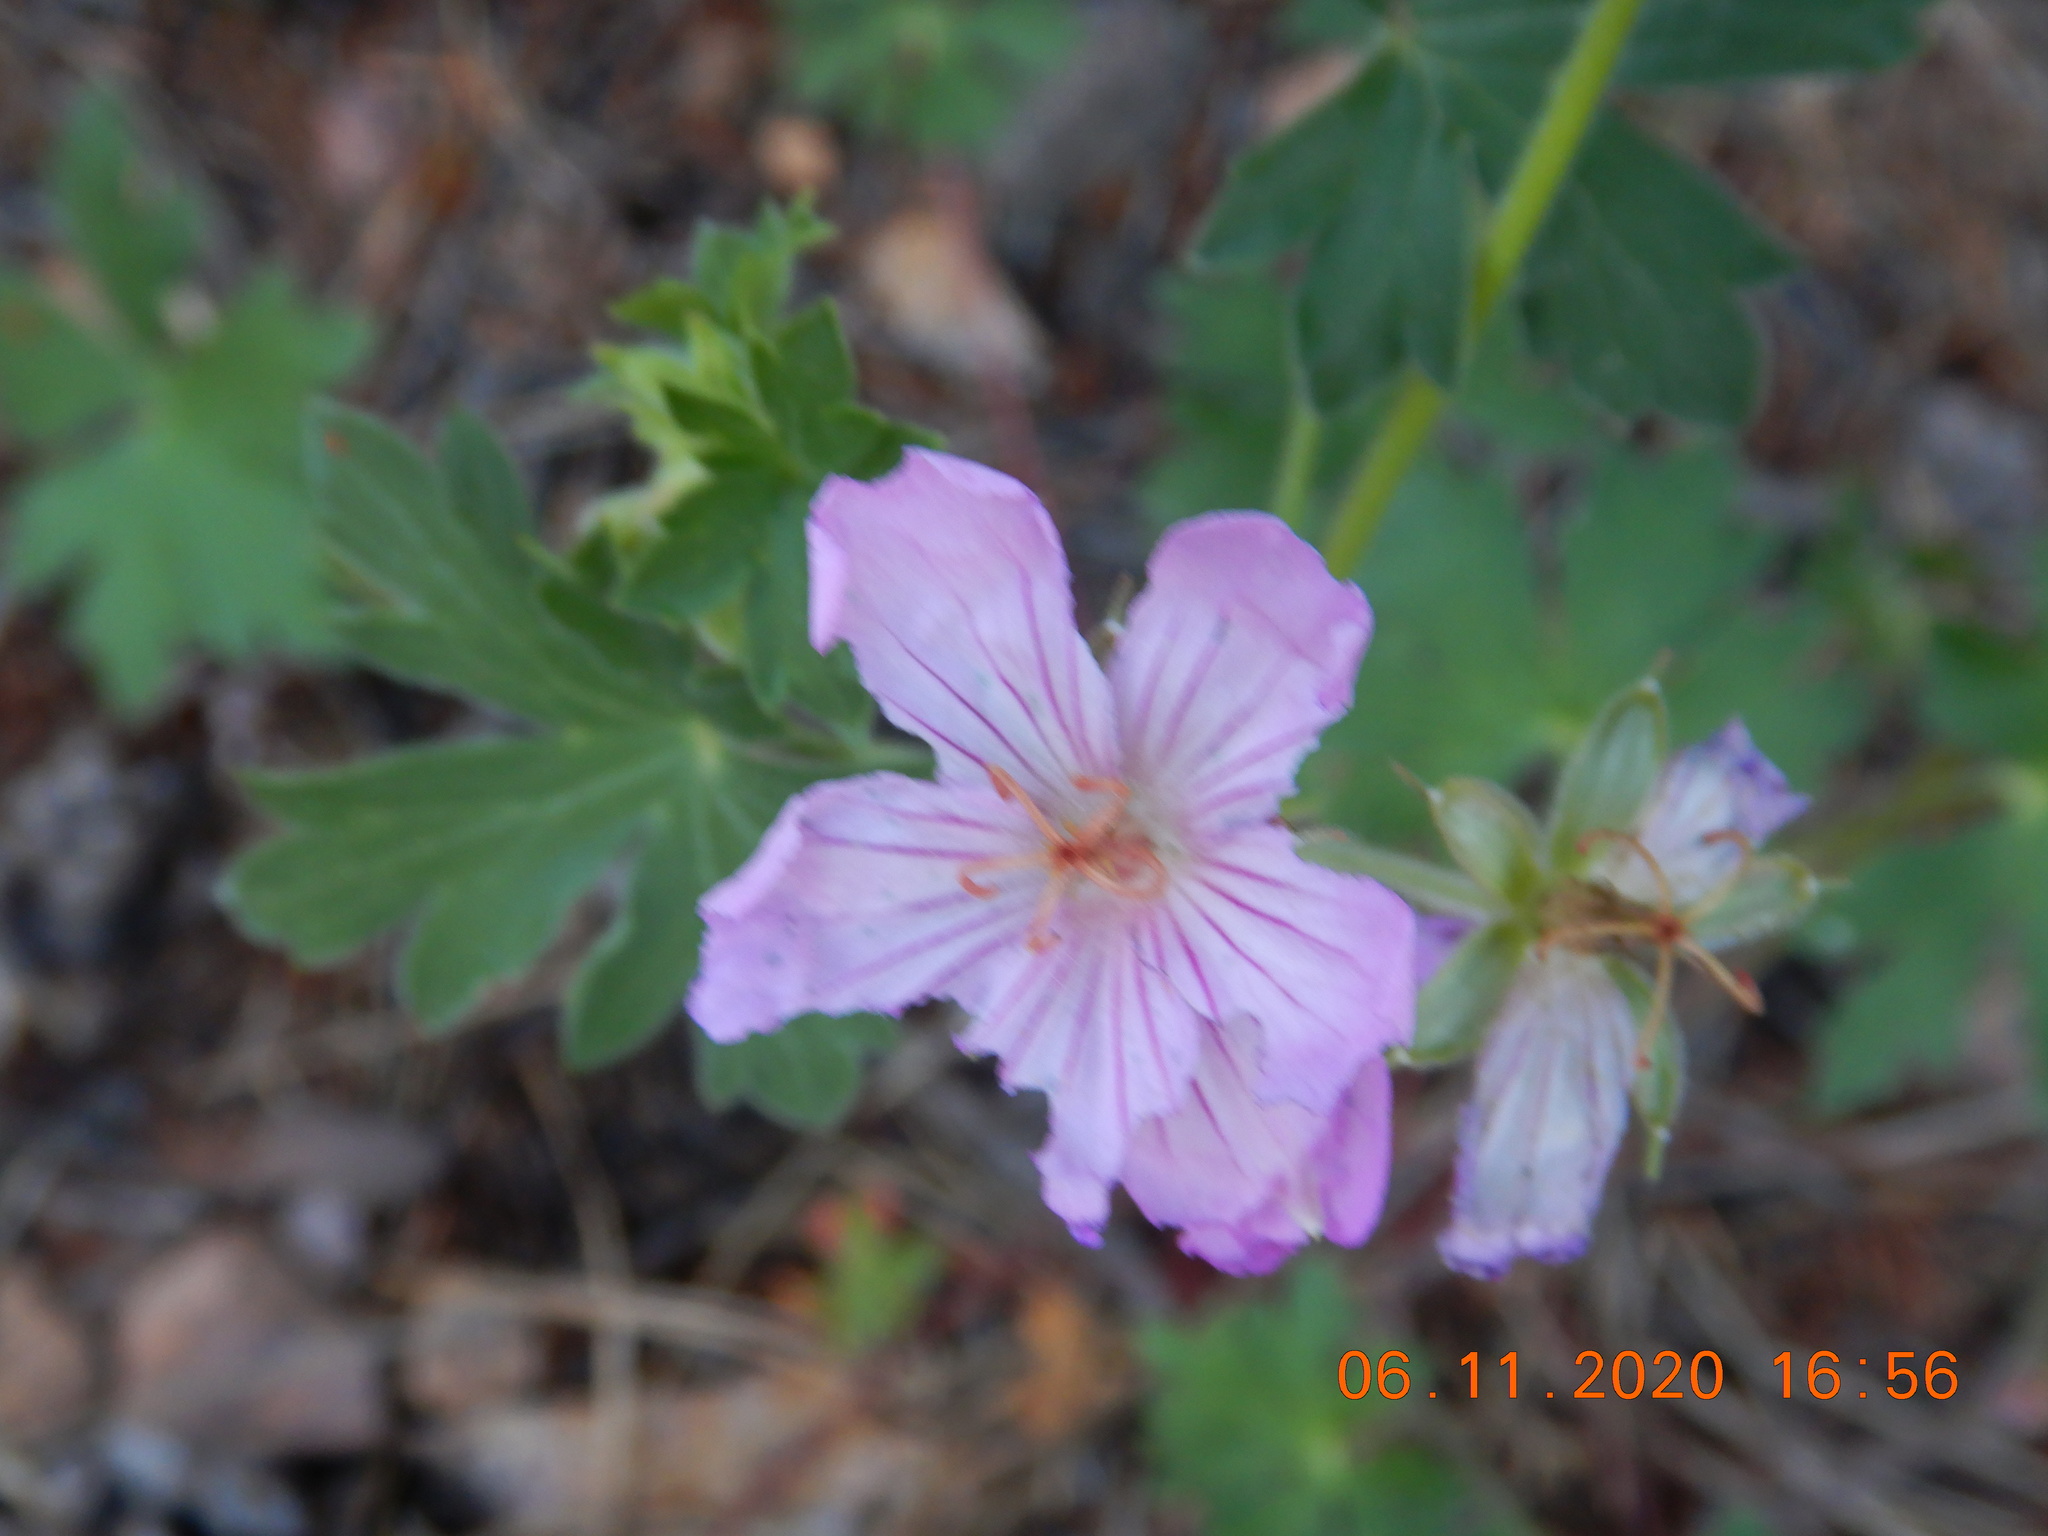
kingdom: Plantae
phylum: Tracheophyta
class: Magnoliopsida
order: Geraniales
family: Geraniaceae
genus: Geranium
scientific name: Geranium caespitosum
